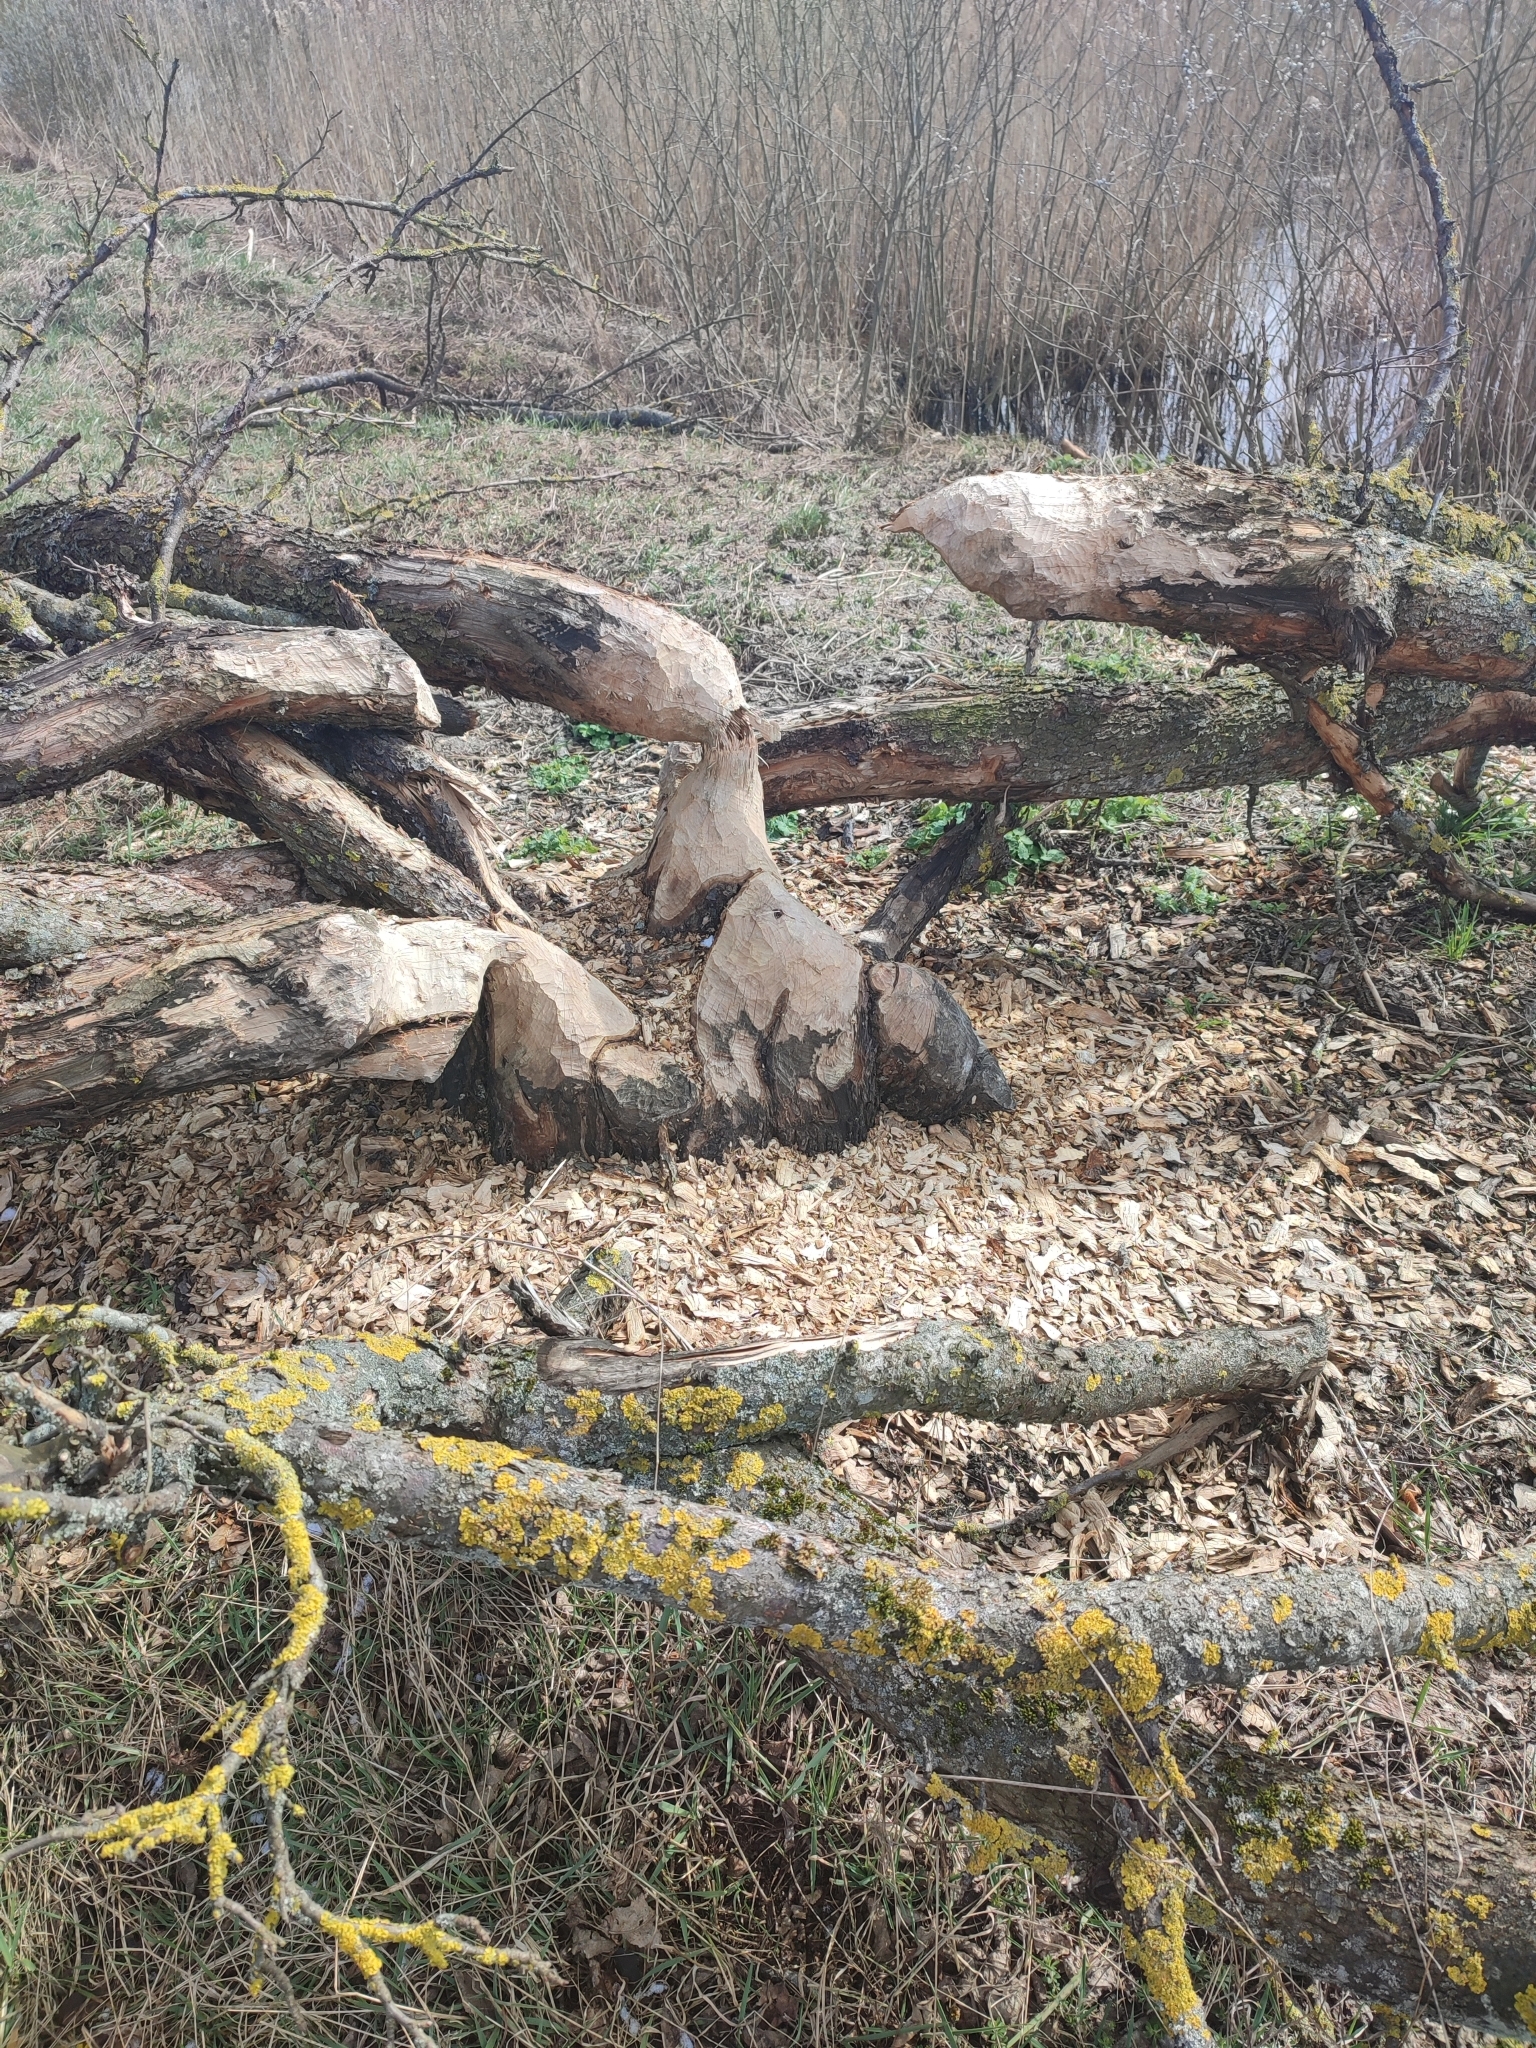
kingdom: Animalia
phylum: Chordata
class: Mammalia
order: Rodentia
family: Castoridae
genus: Castor
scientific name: Castor fiber
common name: Eurasian beaver
